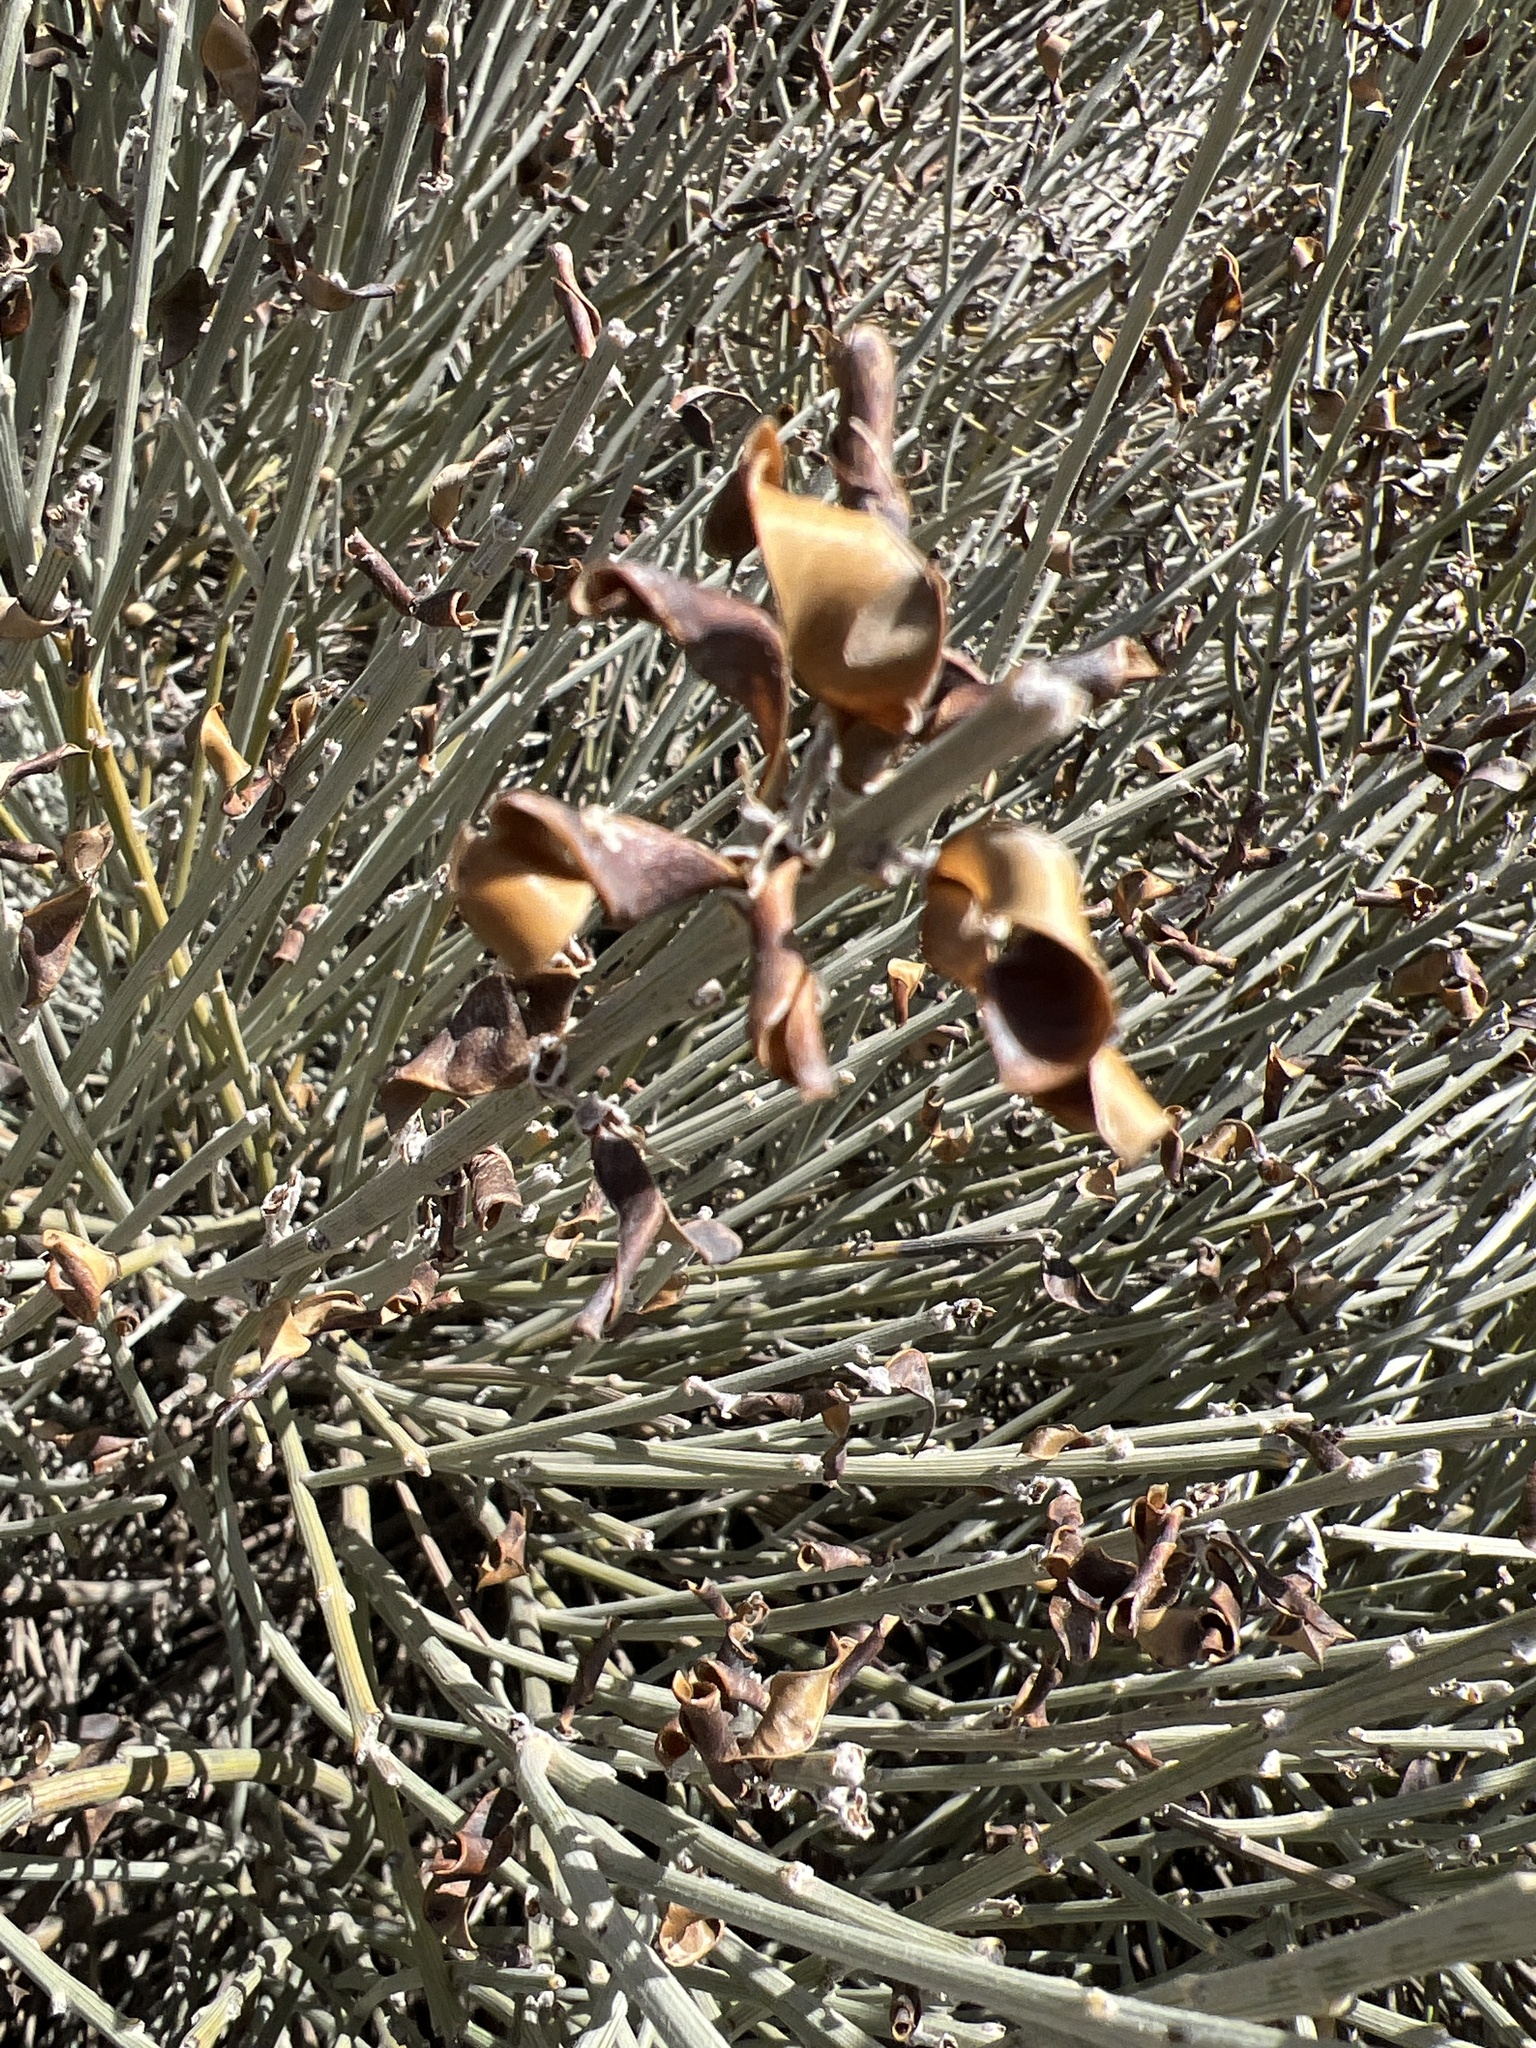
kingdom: Plantae
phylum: Tracheophyta
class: Magnoliopsida
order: Fabales
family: Fabaceae
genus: Cytisus
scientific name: Cytisus supranubius
